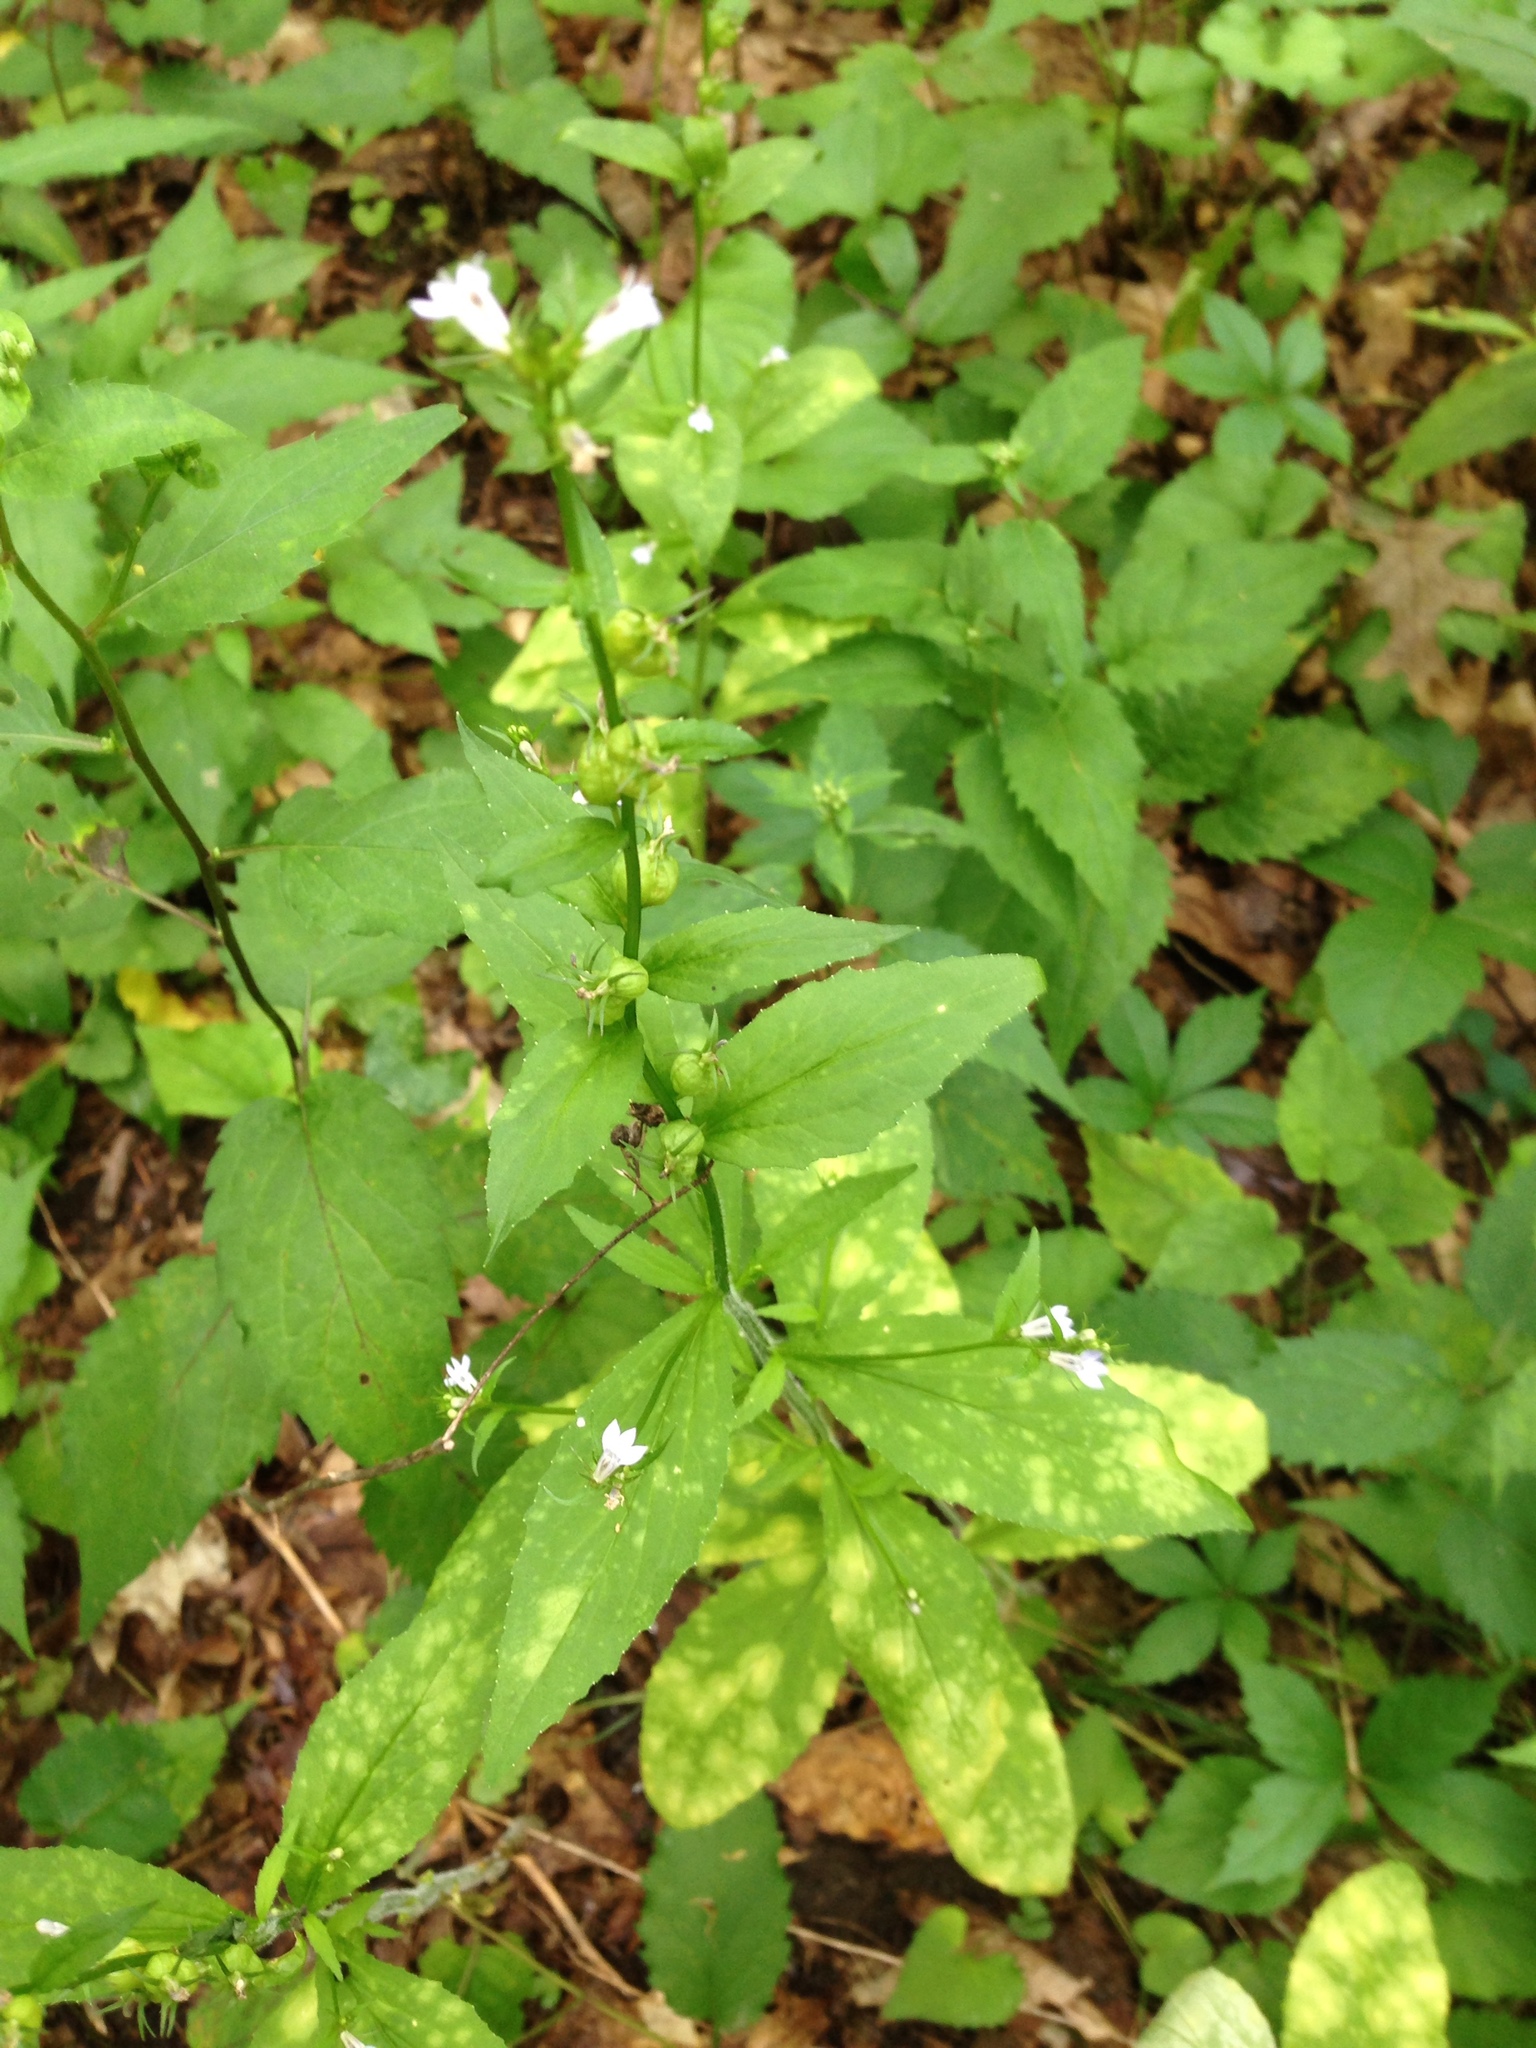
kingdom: Plantae
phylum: Tracheophyta
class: Magnoliopsida
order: Asterales
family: Campanulaceae
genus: Lobelia
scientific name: Lobelia inflata
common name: Indian tobacco
